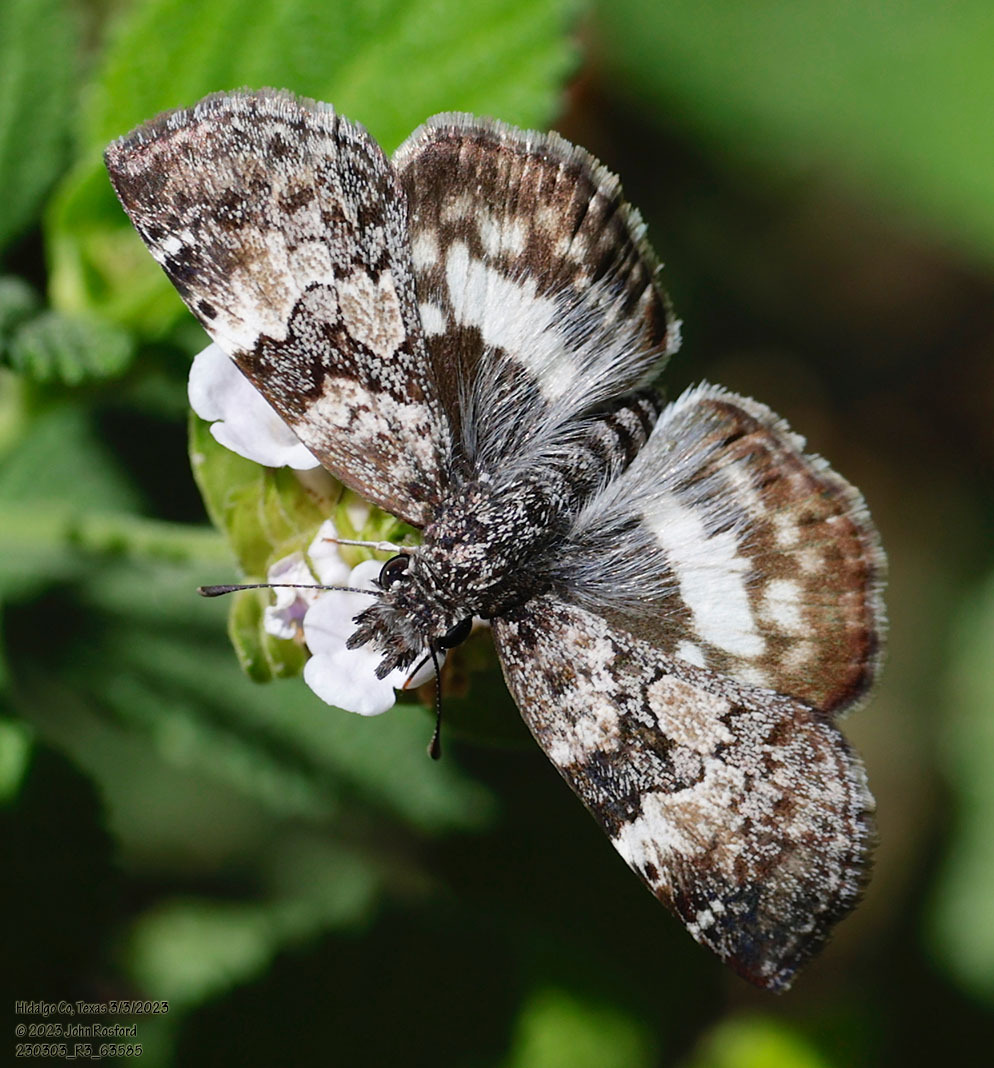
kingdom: Animalia
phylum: Arthropoda
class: Insecta
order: Lepidoptera
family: Hesperiidae
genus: Chiothion
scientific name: Chiothion georgina
